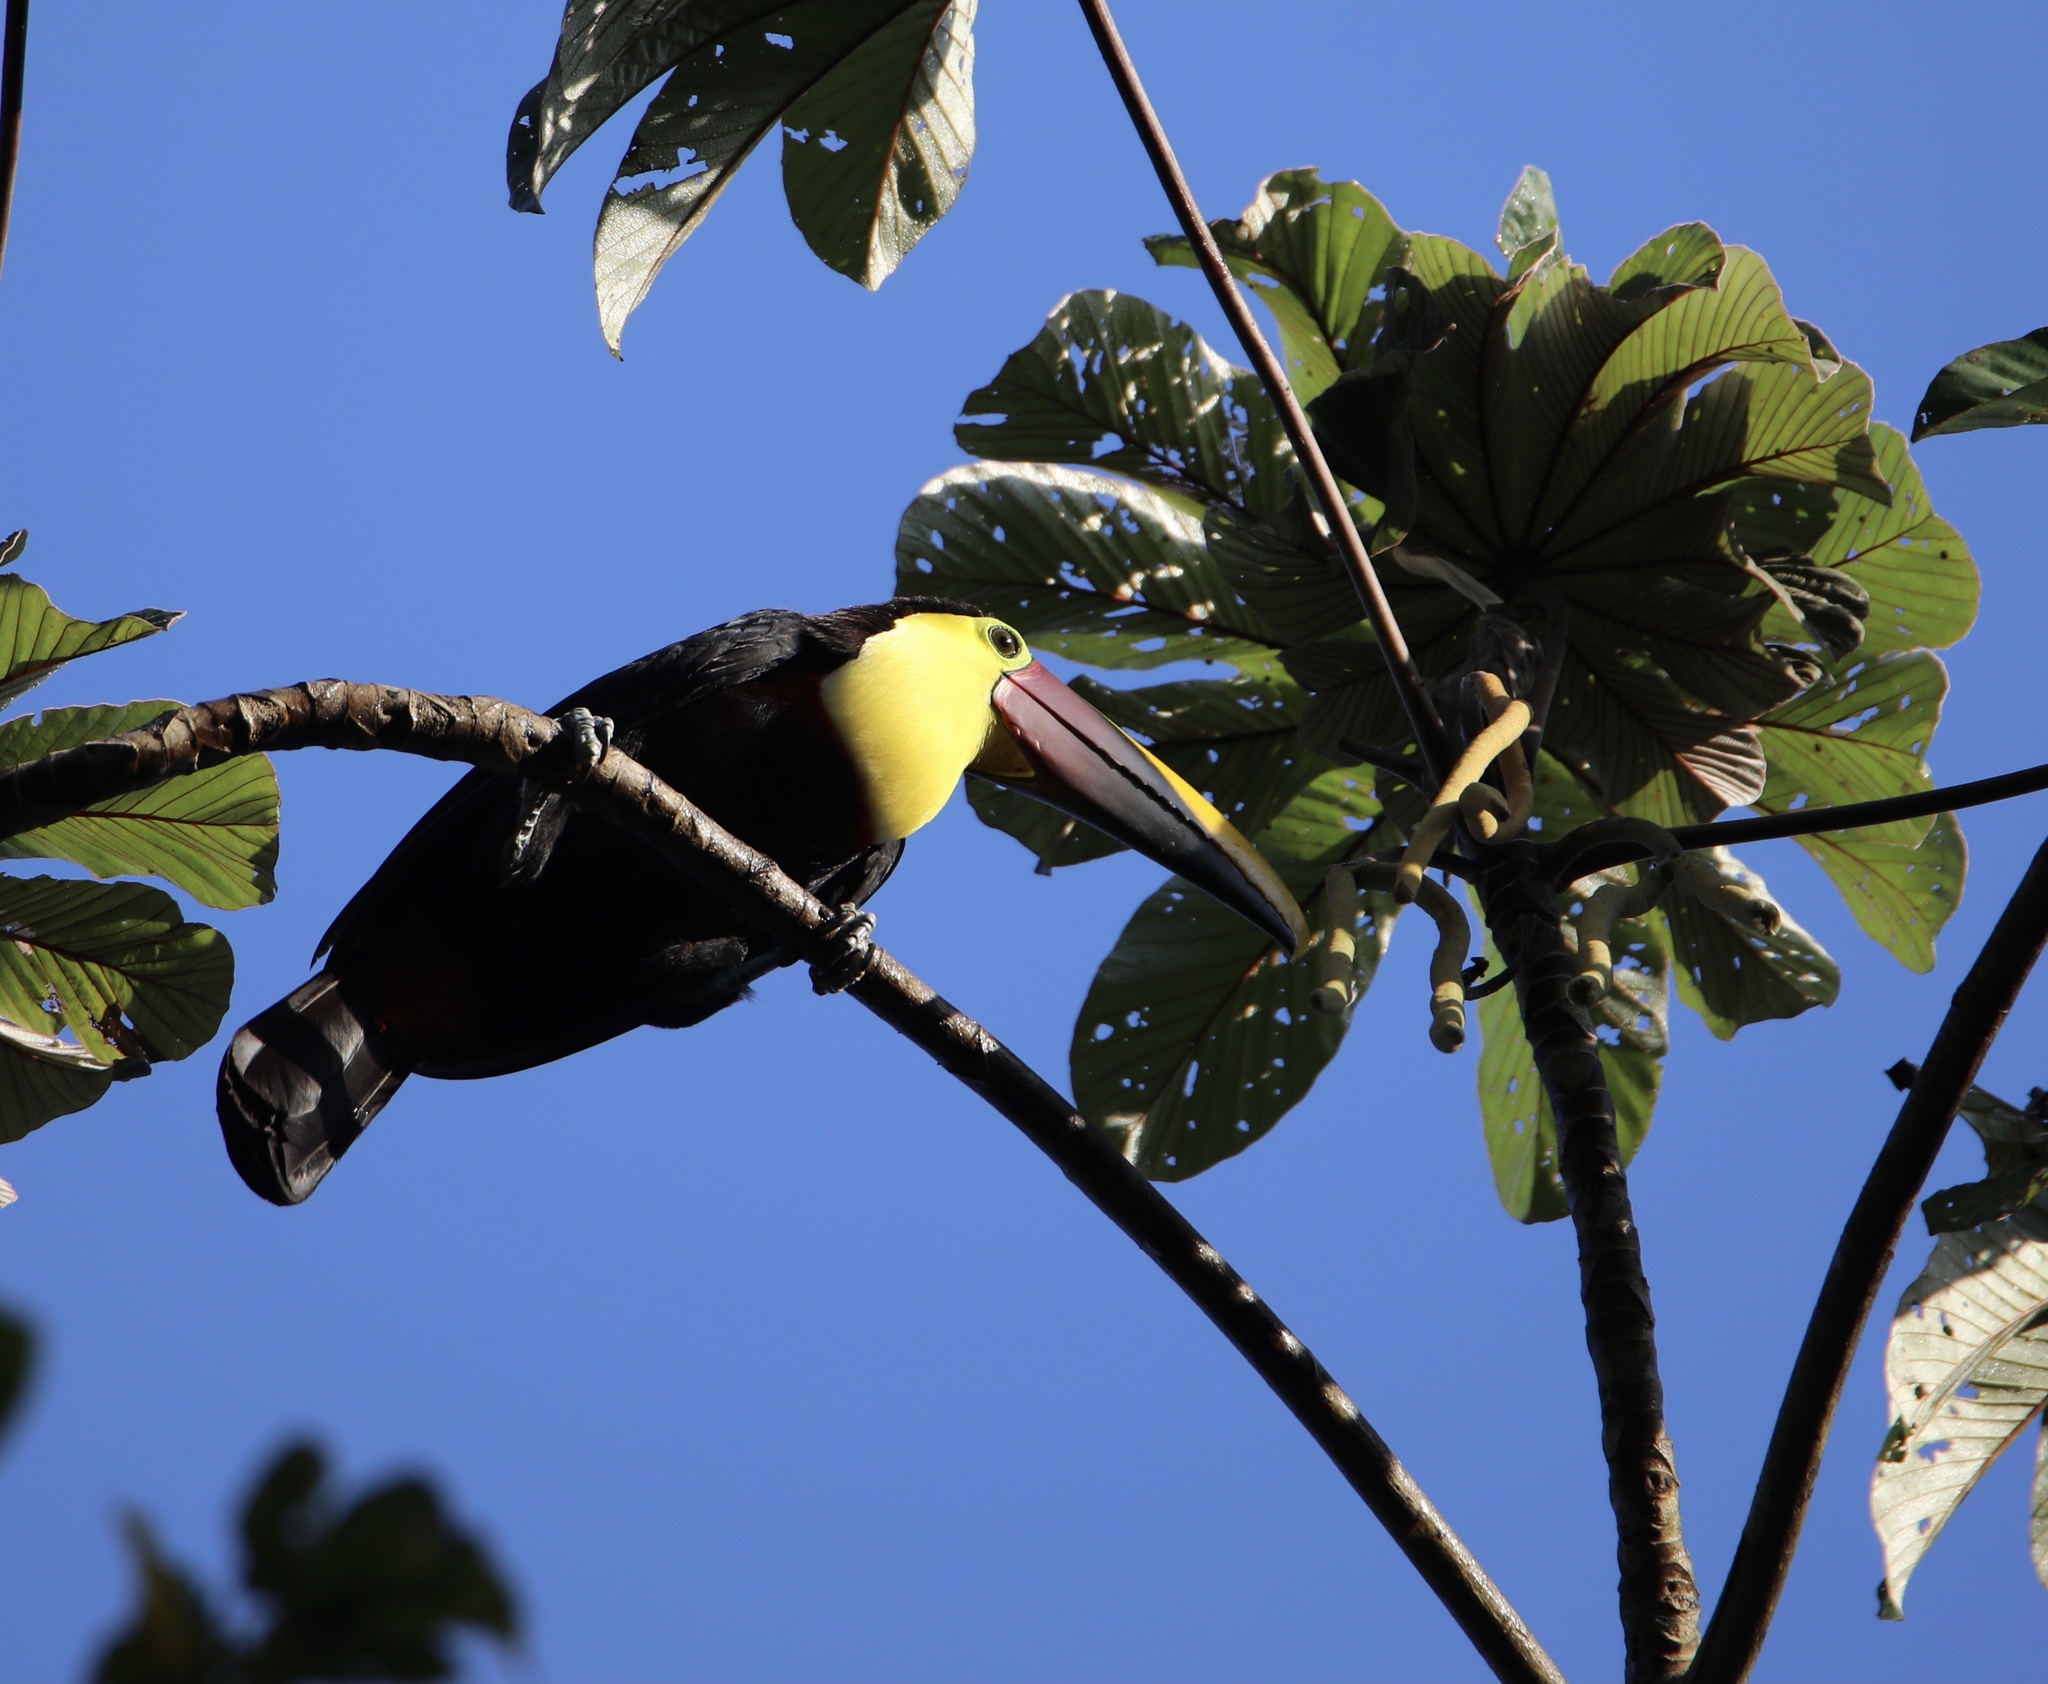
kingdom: Animalia
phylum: Chordata
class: Aves
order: Piciformes
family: Ramphastidae
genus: Ramphastos
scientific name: Ramphastos ambiguus
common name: Yellow-throated toucan
